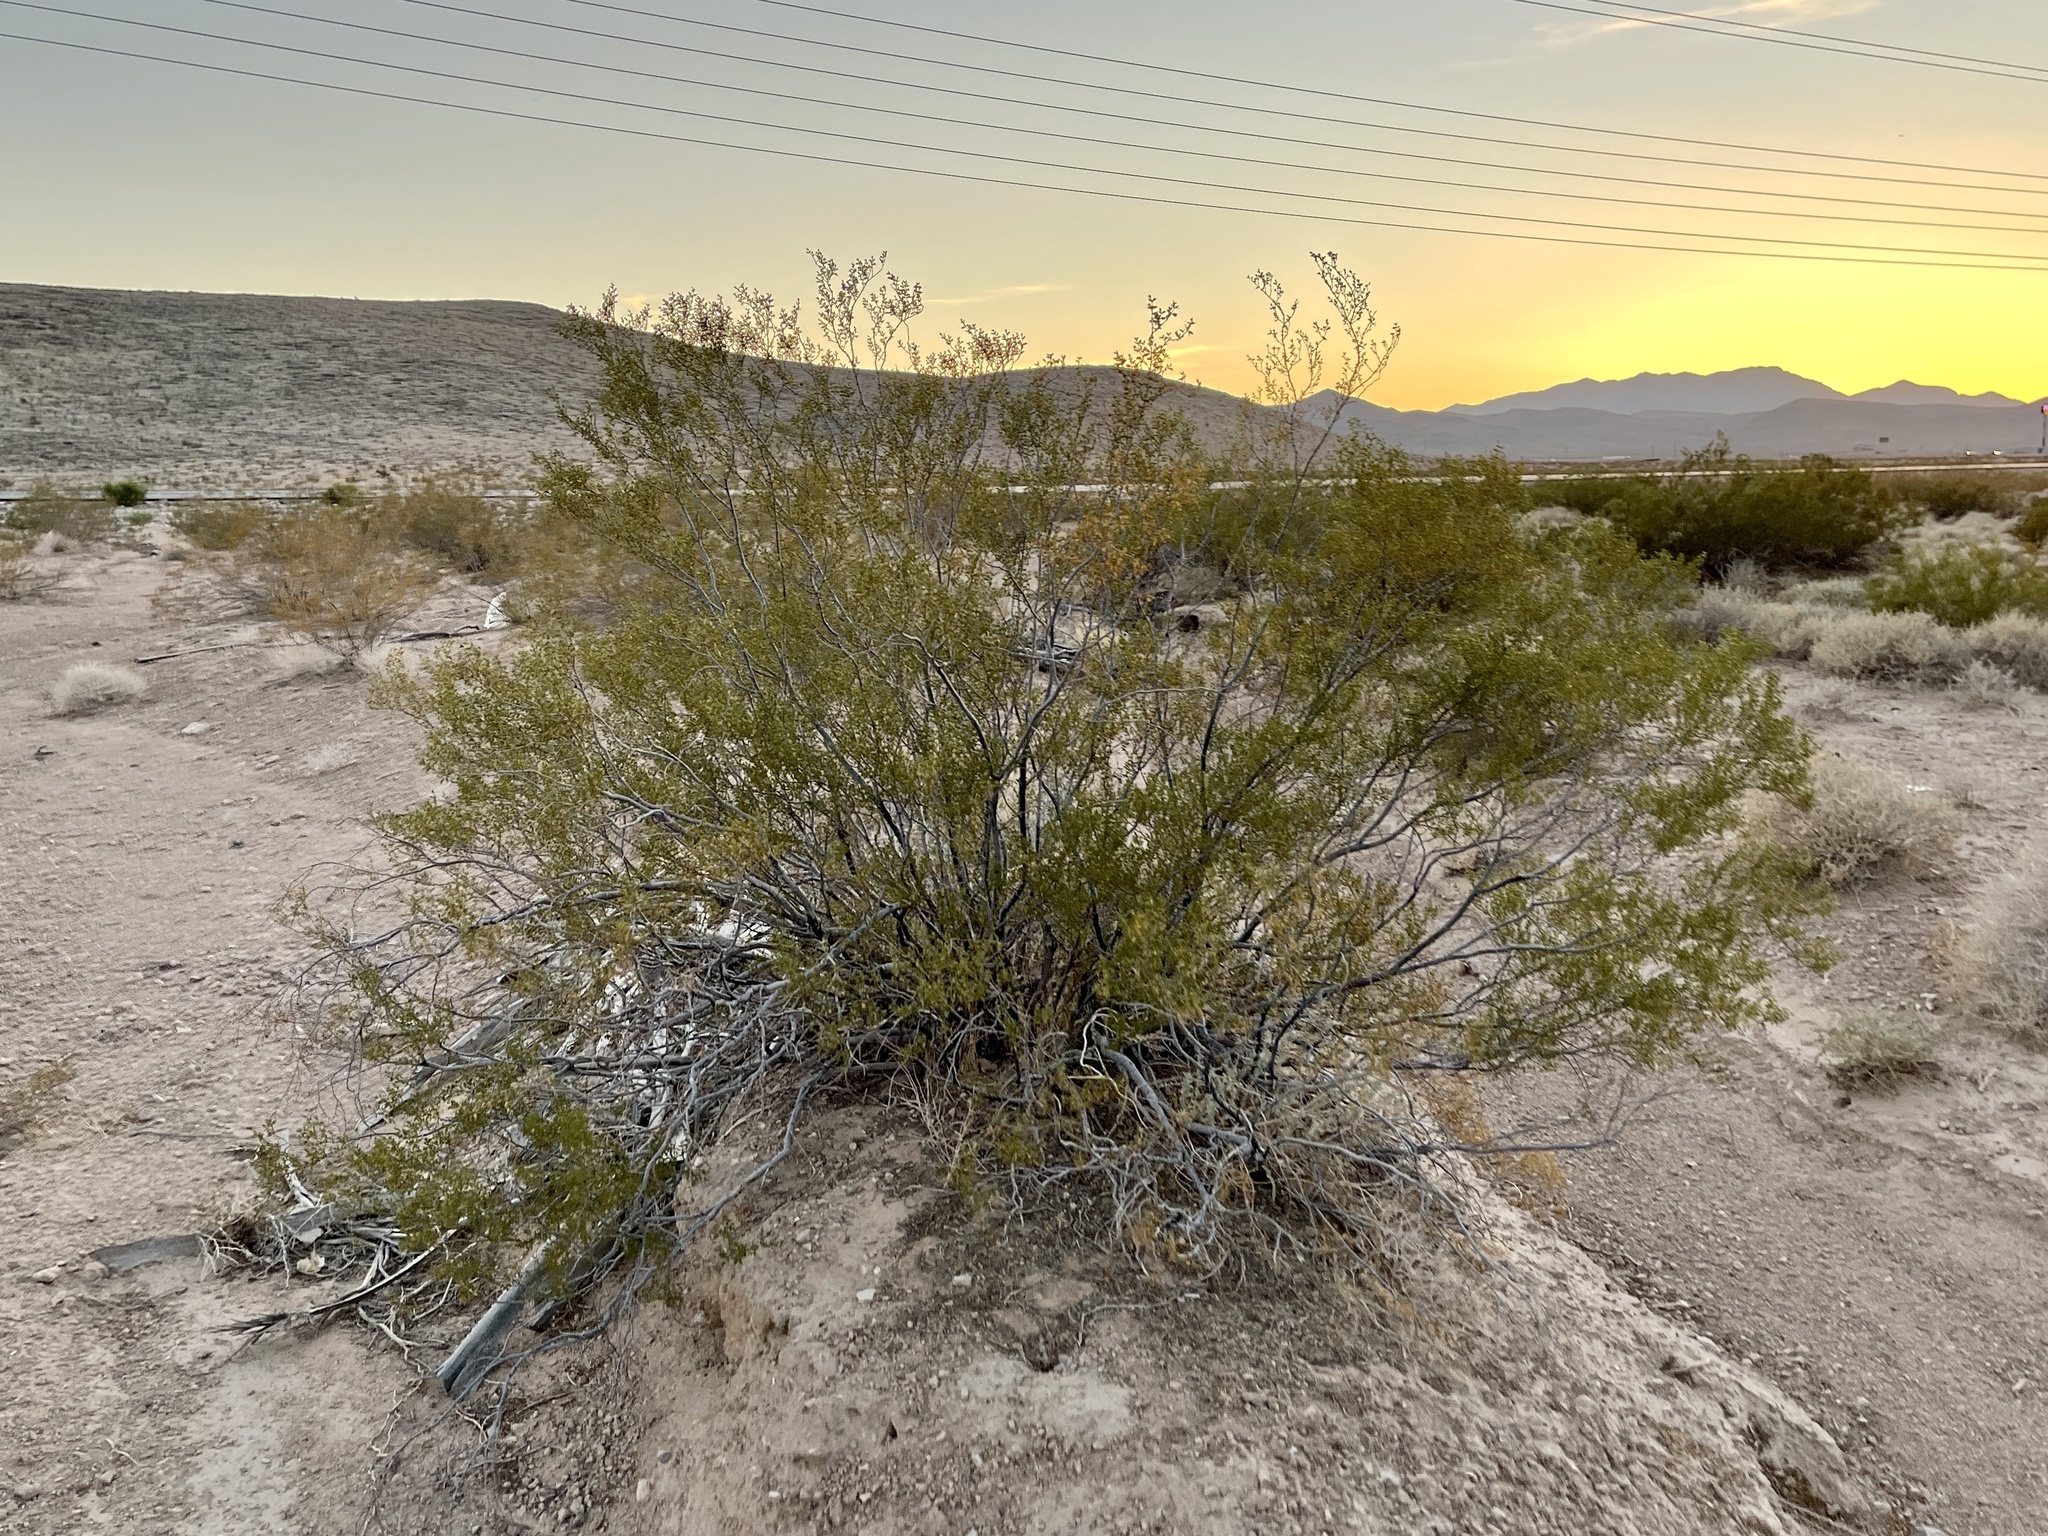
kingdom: Plantae
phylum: Tracheophyta
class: Magnoliopsida
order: Zygophyllales
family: Zygophyllaceae
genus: Larrea
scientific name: Larrea tridentata
